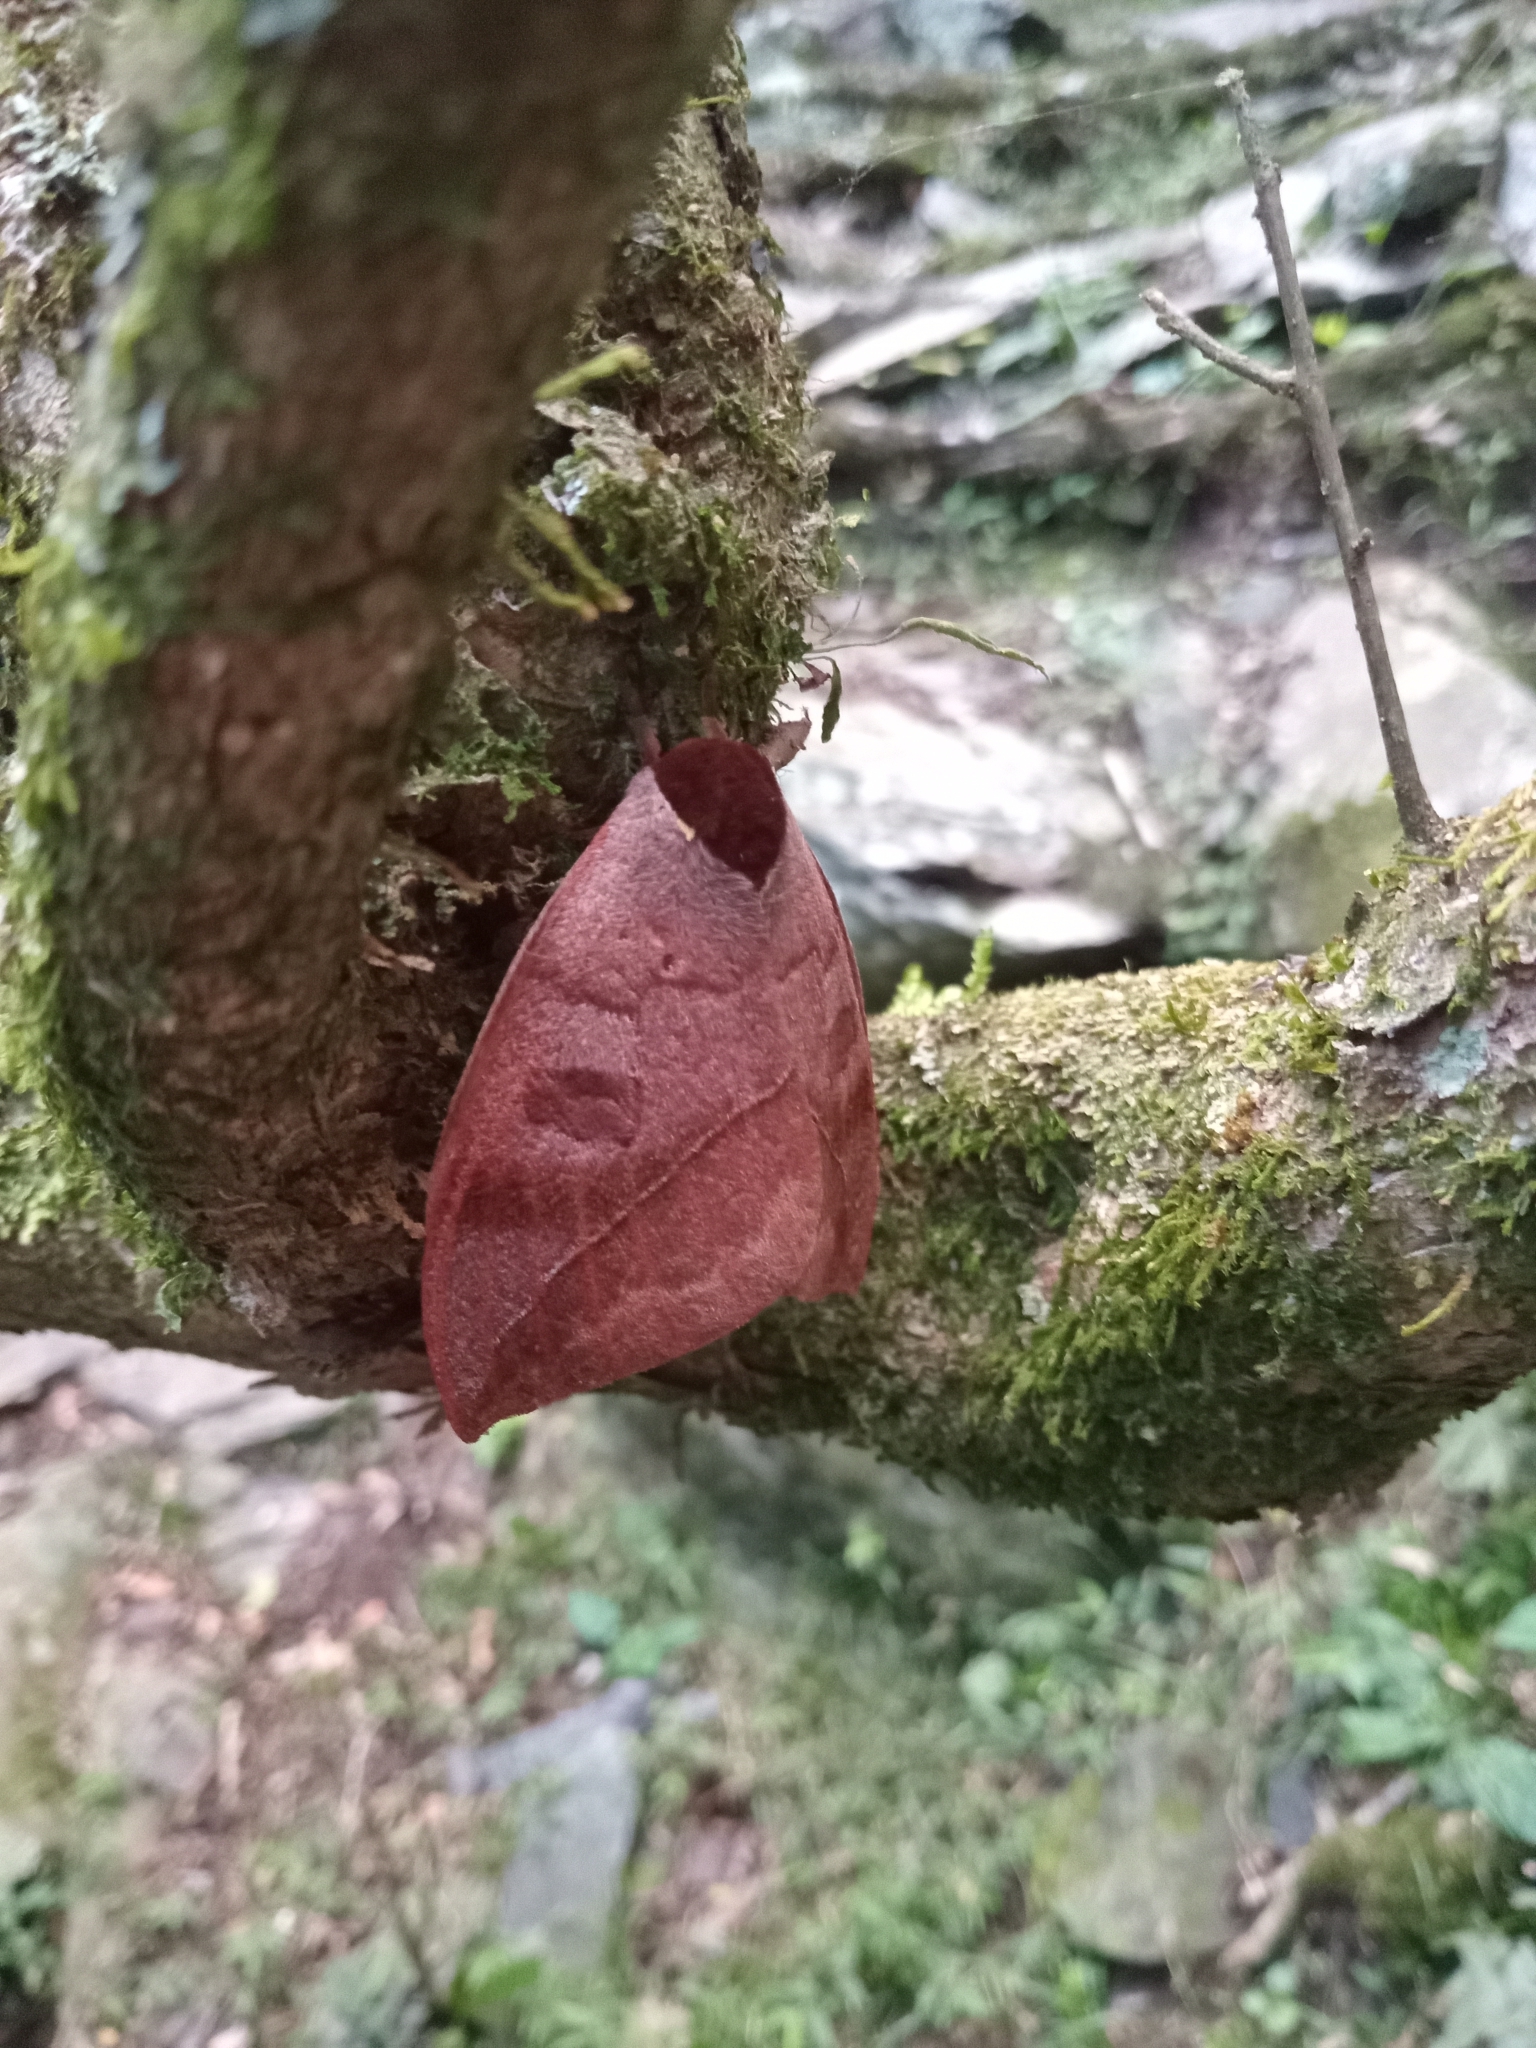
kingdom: Animalia
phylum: Arthropoda
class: Insecta
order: Lepidoptera
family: Saturniidae
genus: Automeris
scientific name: Automeris illustris
